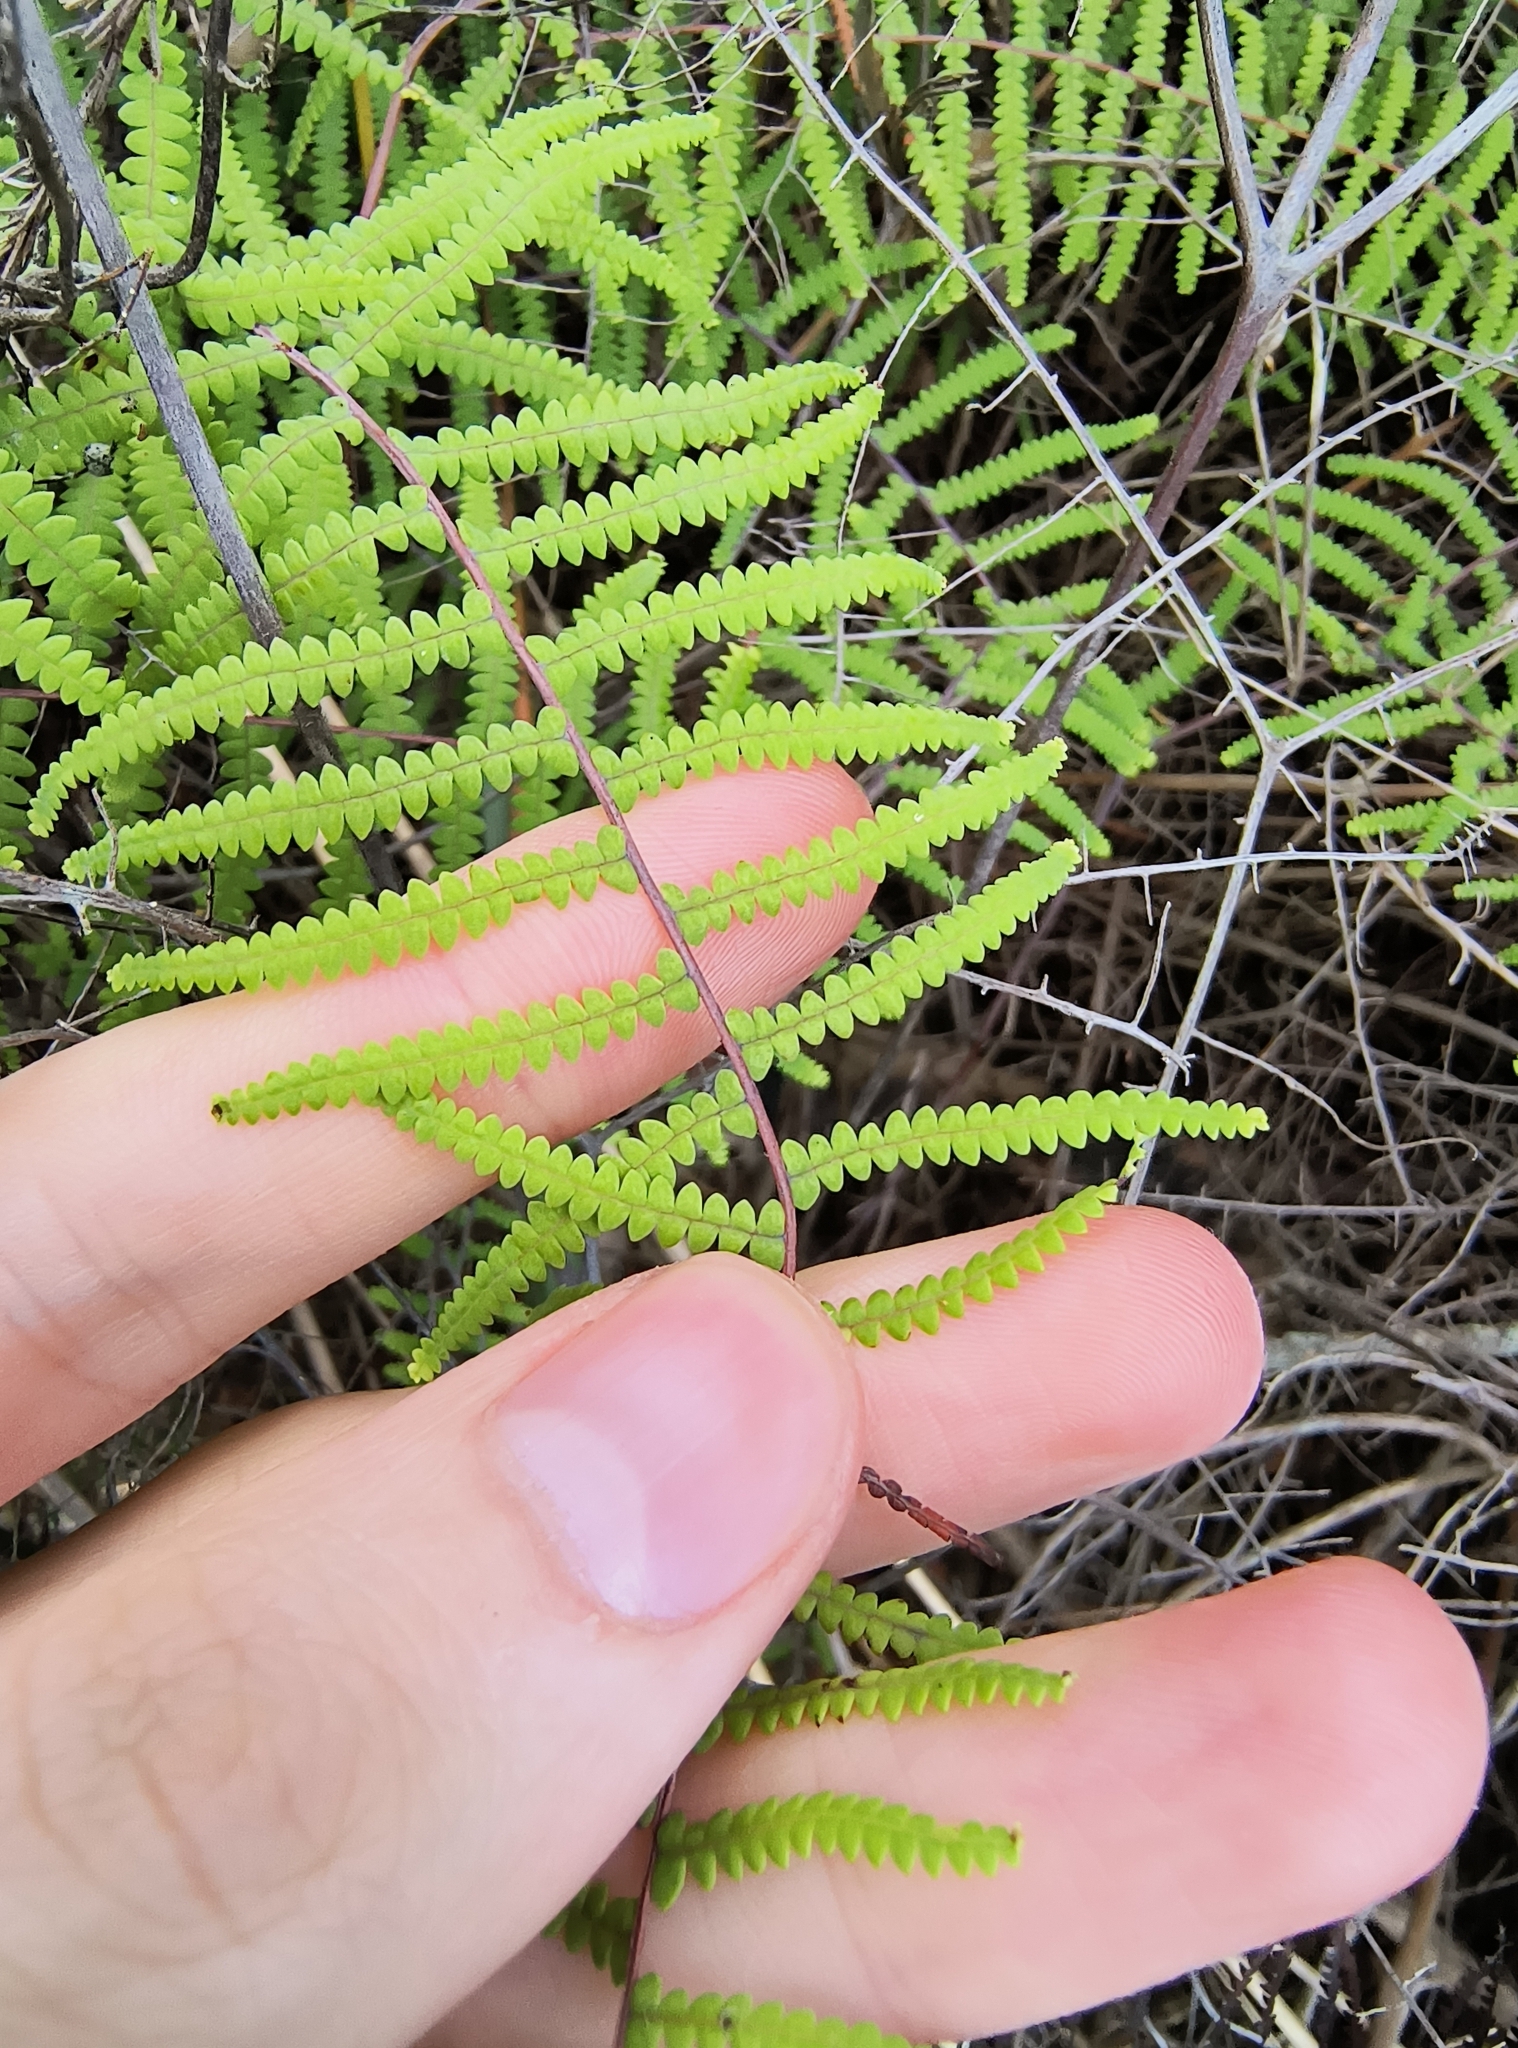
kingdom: Plantae
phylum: Tracheophyta
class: Polypodiopsida
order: Gleicheniales
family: Gleicheniaceae
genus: Gleichenia
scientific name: Gleichenia polypodioides
